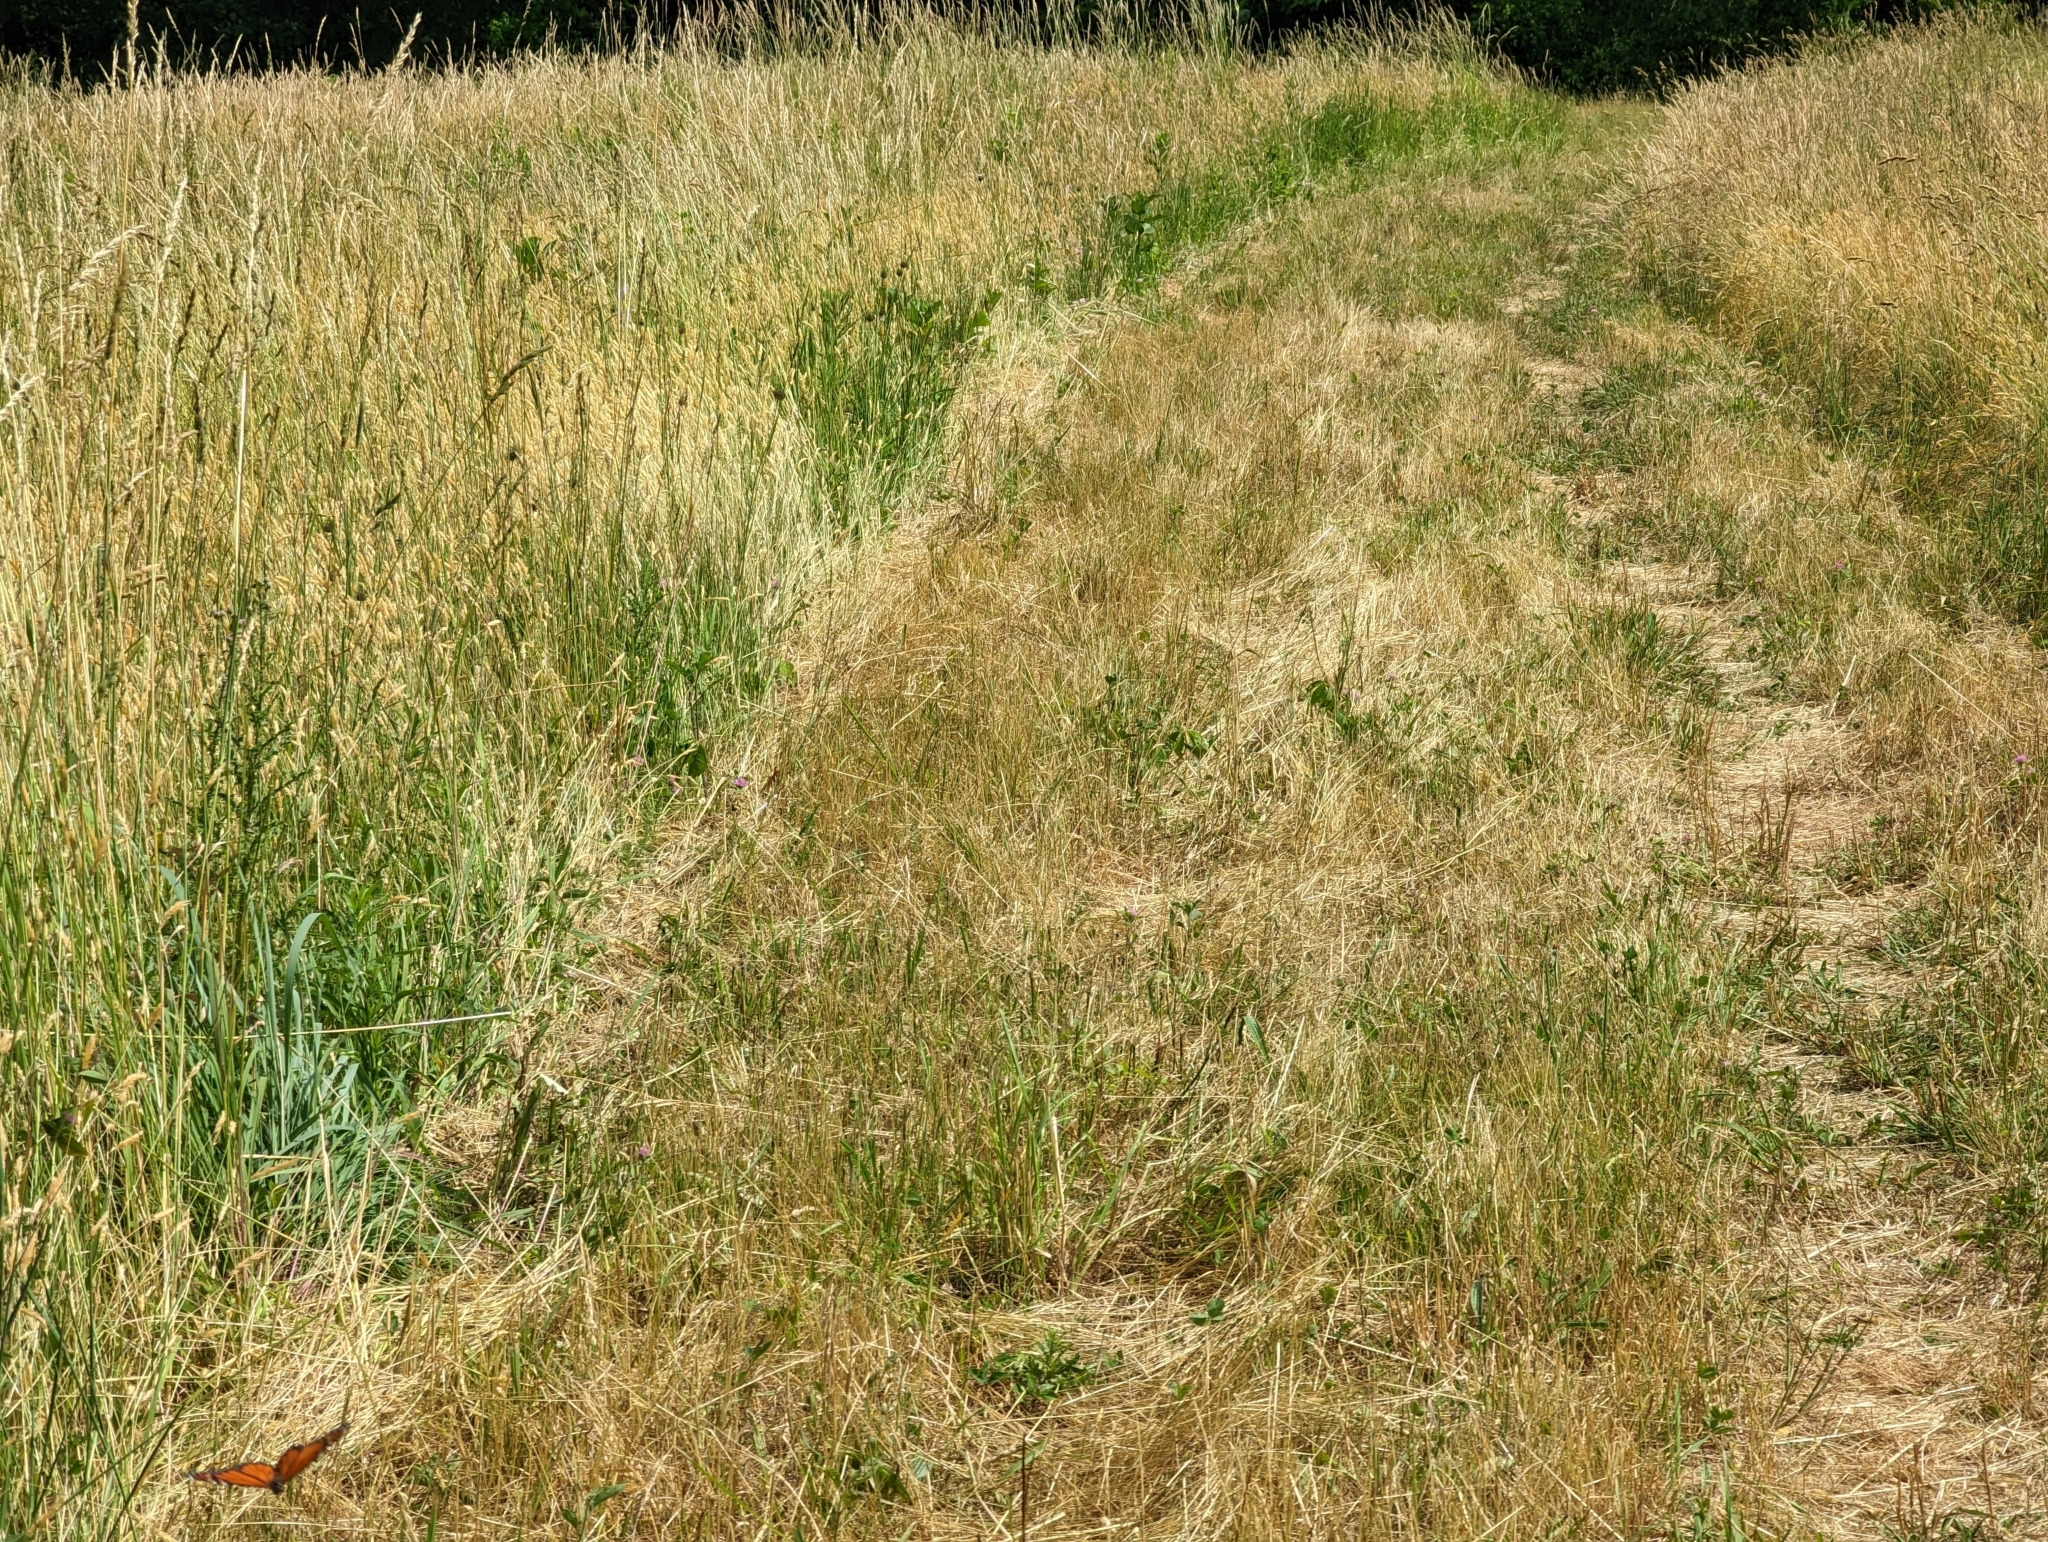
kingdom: Animalia
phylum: Arthropoda
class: Insecta
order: Lepidoptera
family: Nymphalidae
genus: Danaus
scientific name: Danaus plexippus
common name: Monarch
